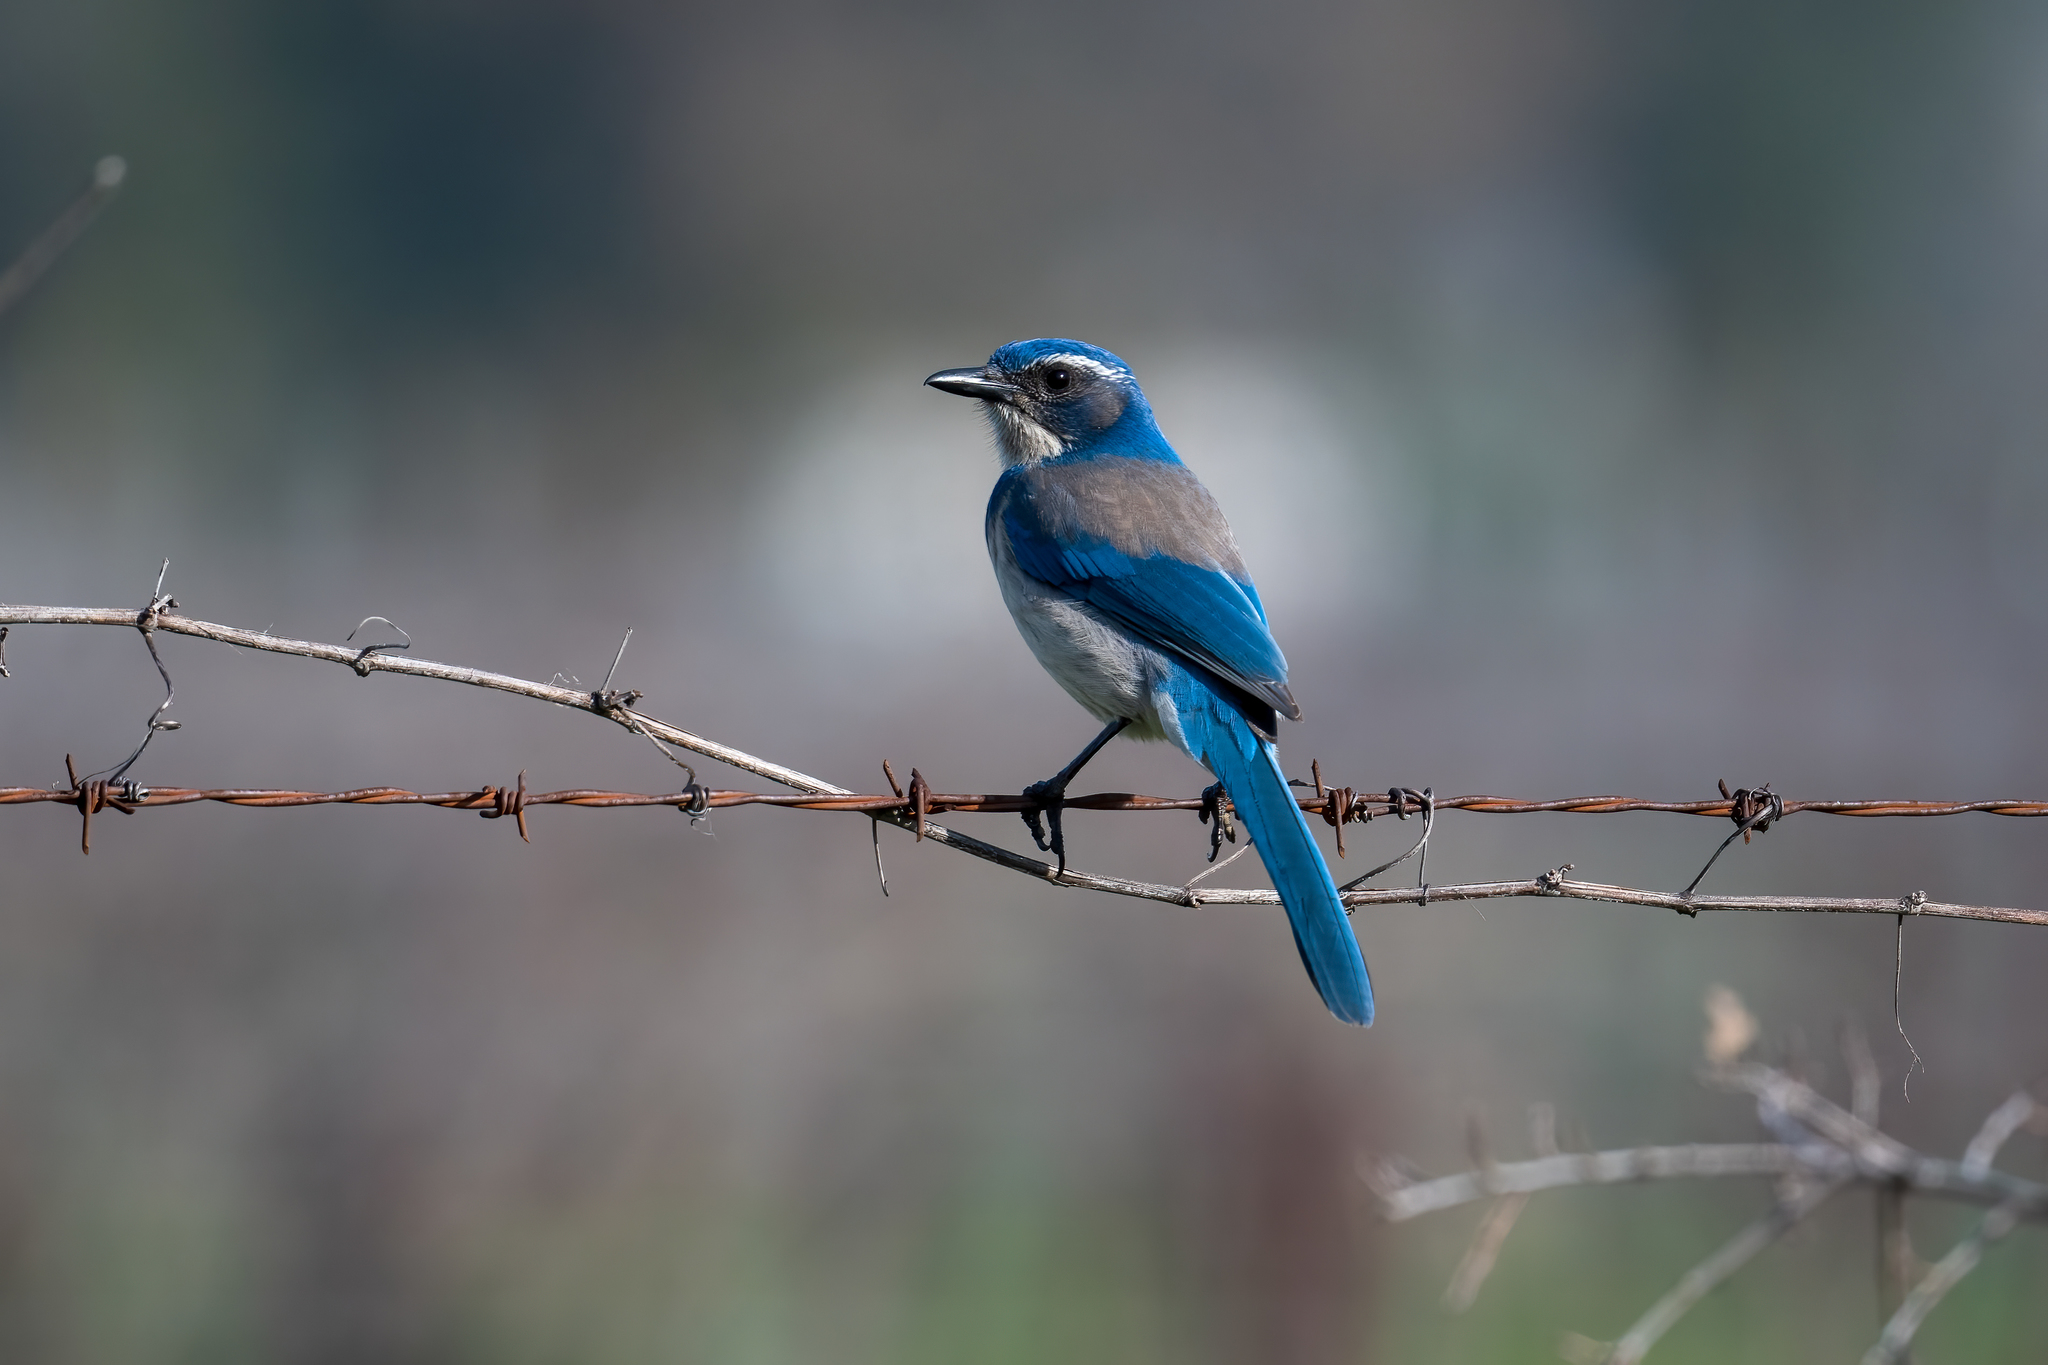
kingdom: Animalia
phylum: Chordata
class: Aves
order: Passeriformes
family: Corvidae
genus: Aphelocoma
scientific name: Aphelocoma californica
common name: California scrub-jay
